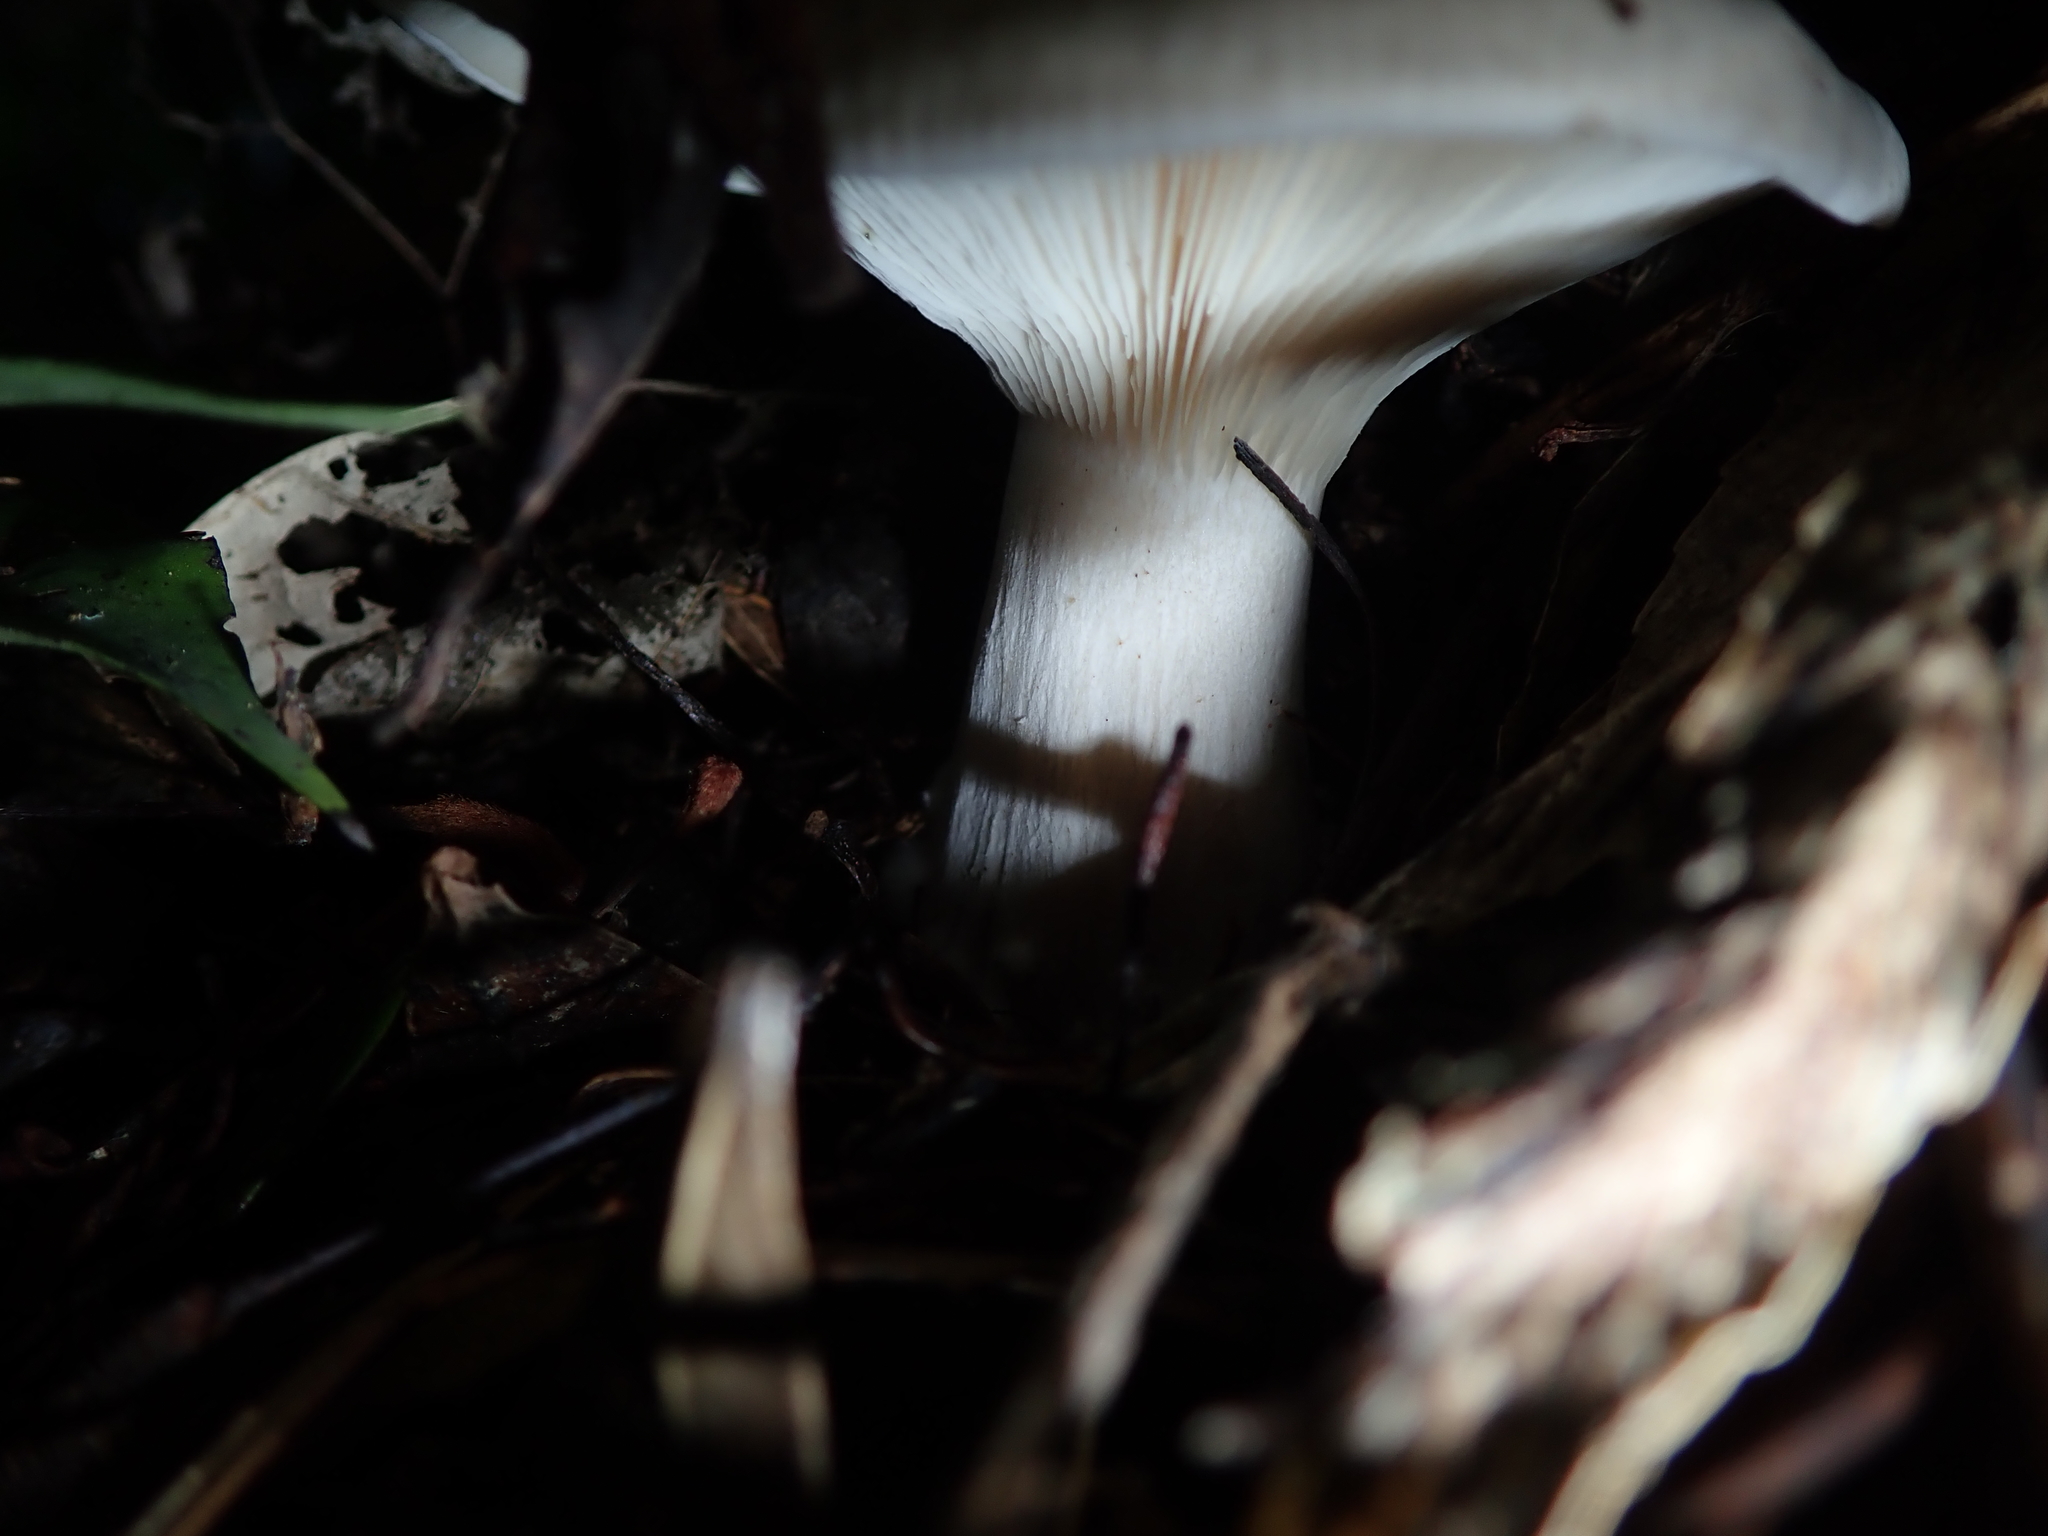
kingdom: Fungi
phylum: Basidiomycota
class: Agaricomycetes
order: Agaricales
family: Tricholomataceae
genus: Clitocybe
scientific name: Clitocybe nebularis
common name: Clouded agaric
